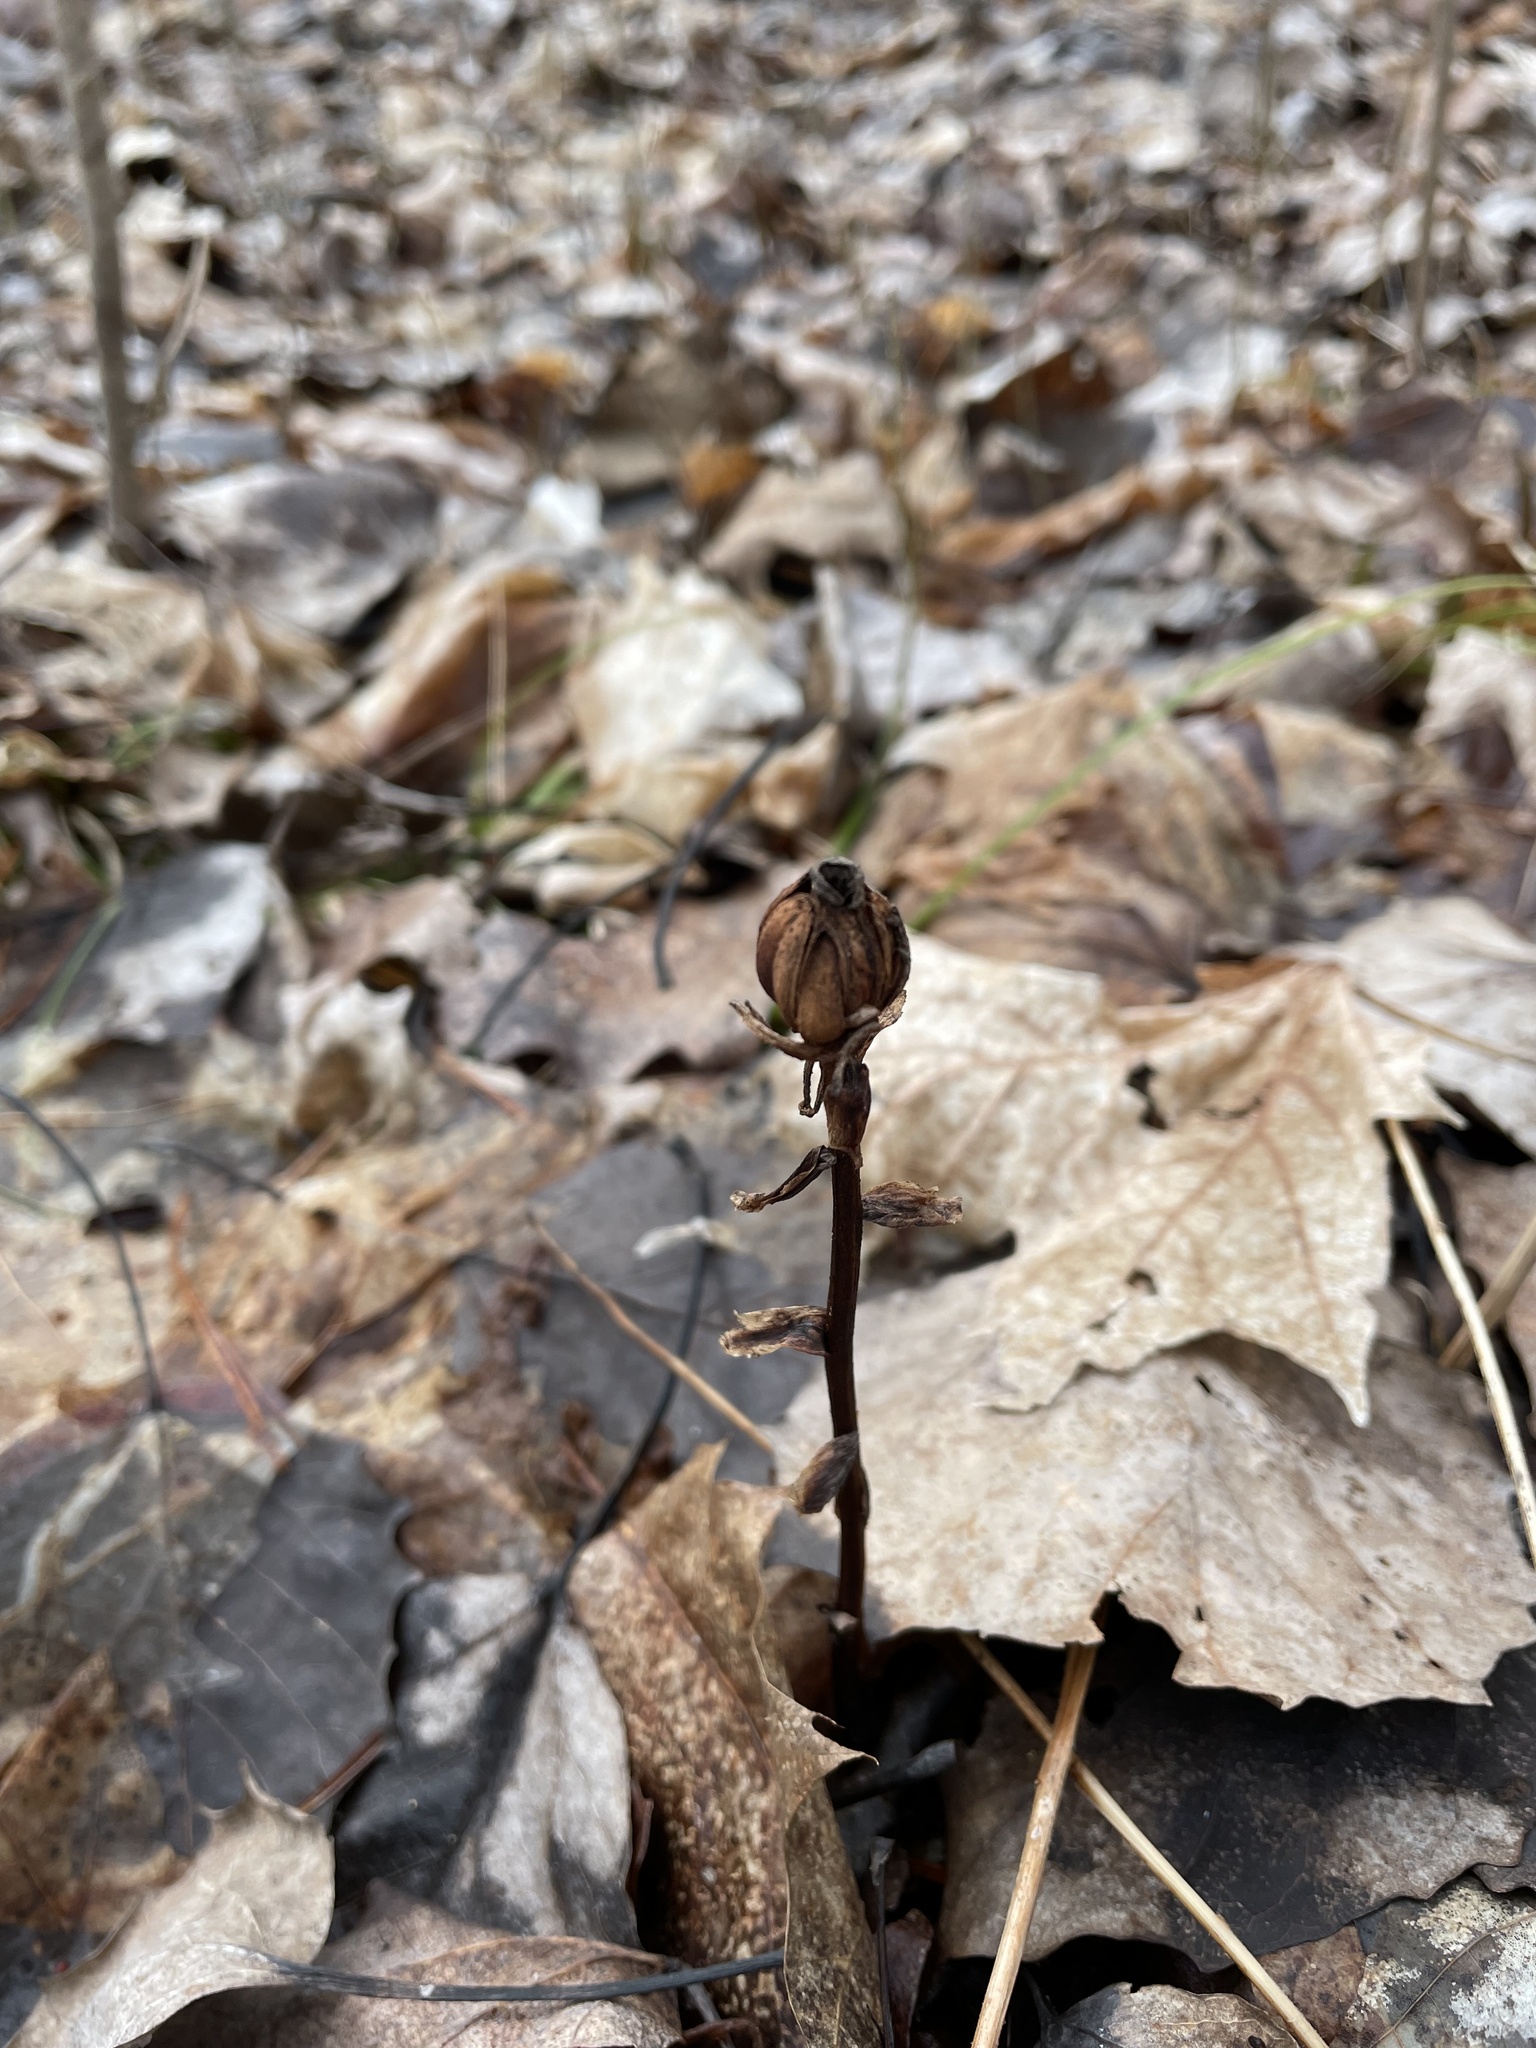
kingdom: Plantae
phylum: Tracheophyta
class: Magnoliopsida
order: Ericales
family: Ericaceae
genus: Monotropa
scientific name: Monotropa uniflora
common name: Convulsion root
